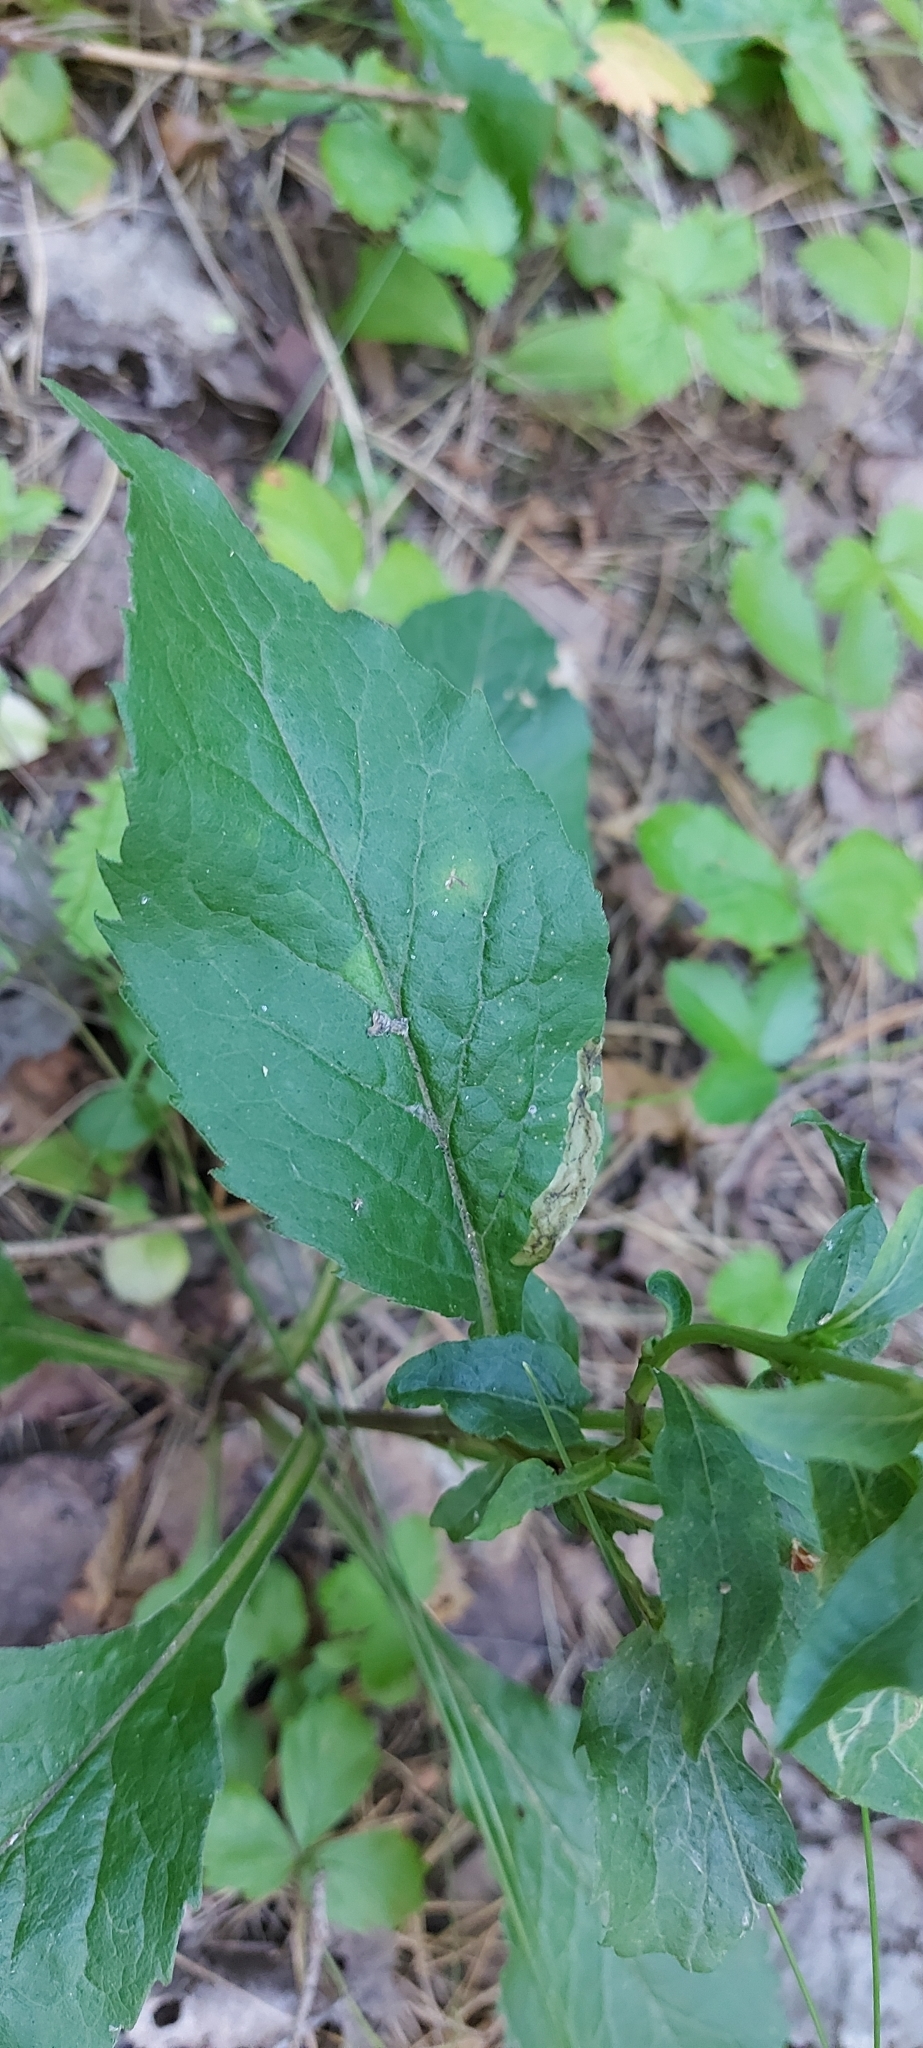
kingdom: Plantae
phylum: Tracheophyta
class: Magnoliopsida
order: Asterales
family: Asteraceae
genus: Solidago
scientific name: Solidago virgaurea
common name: Goldenrod
